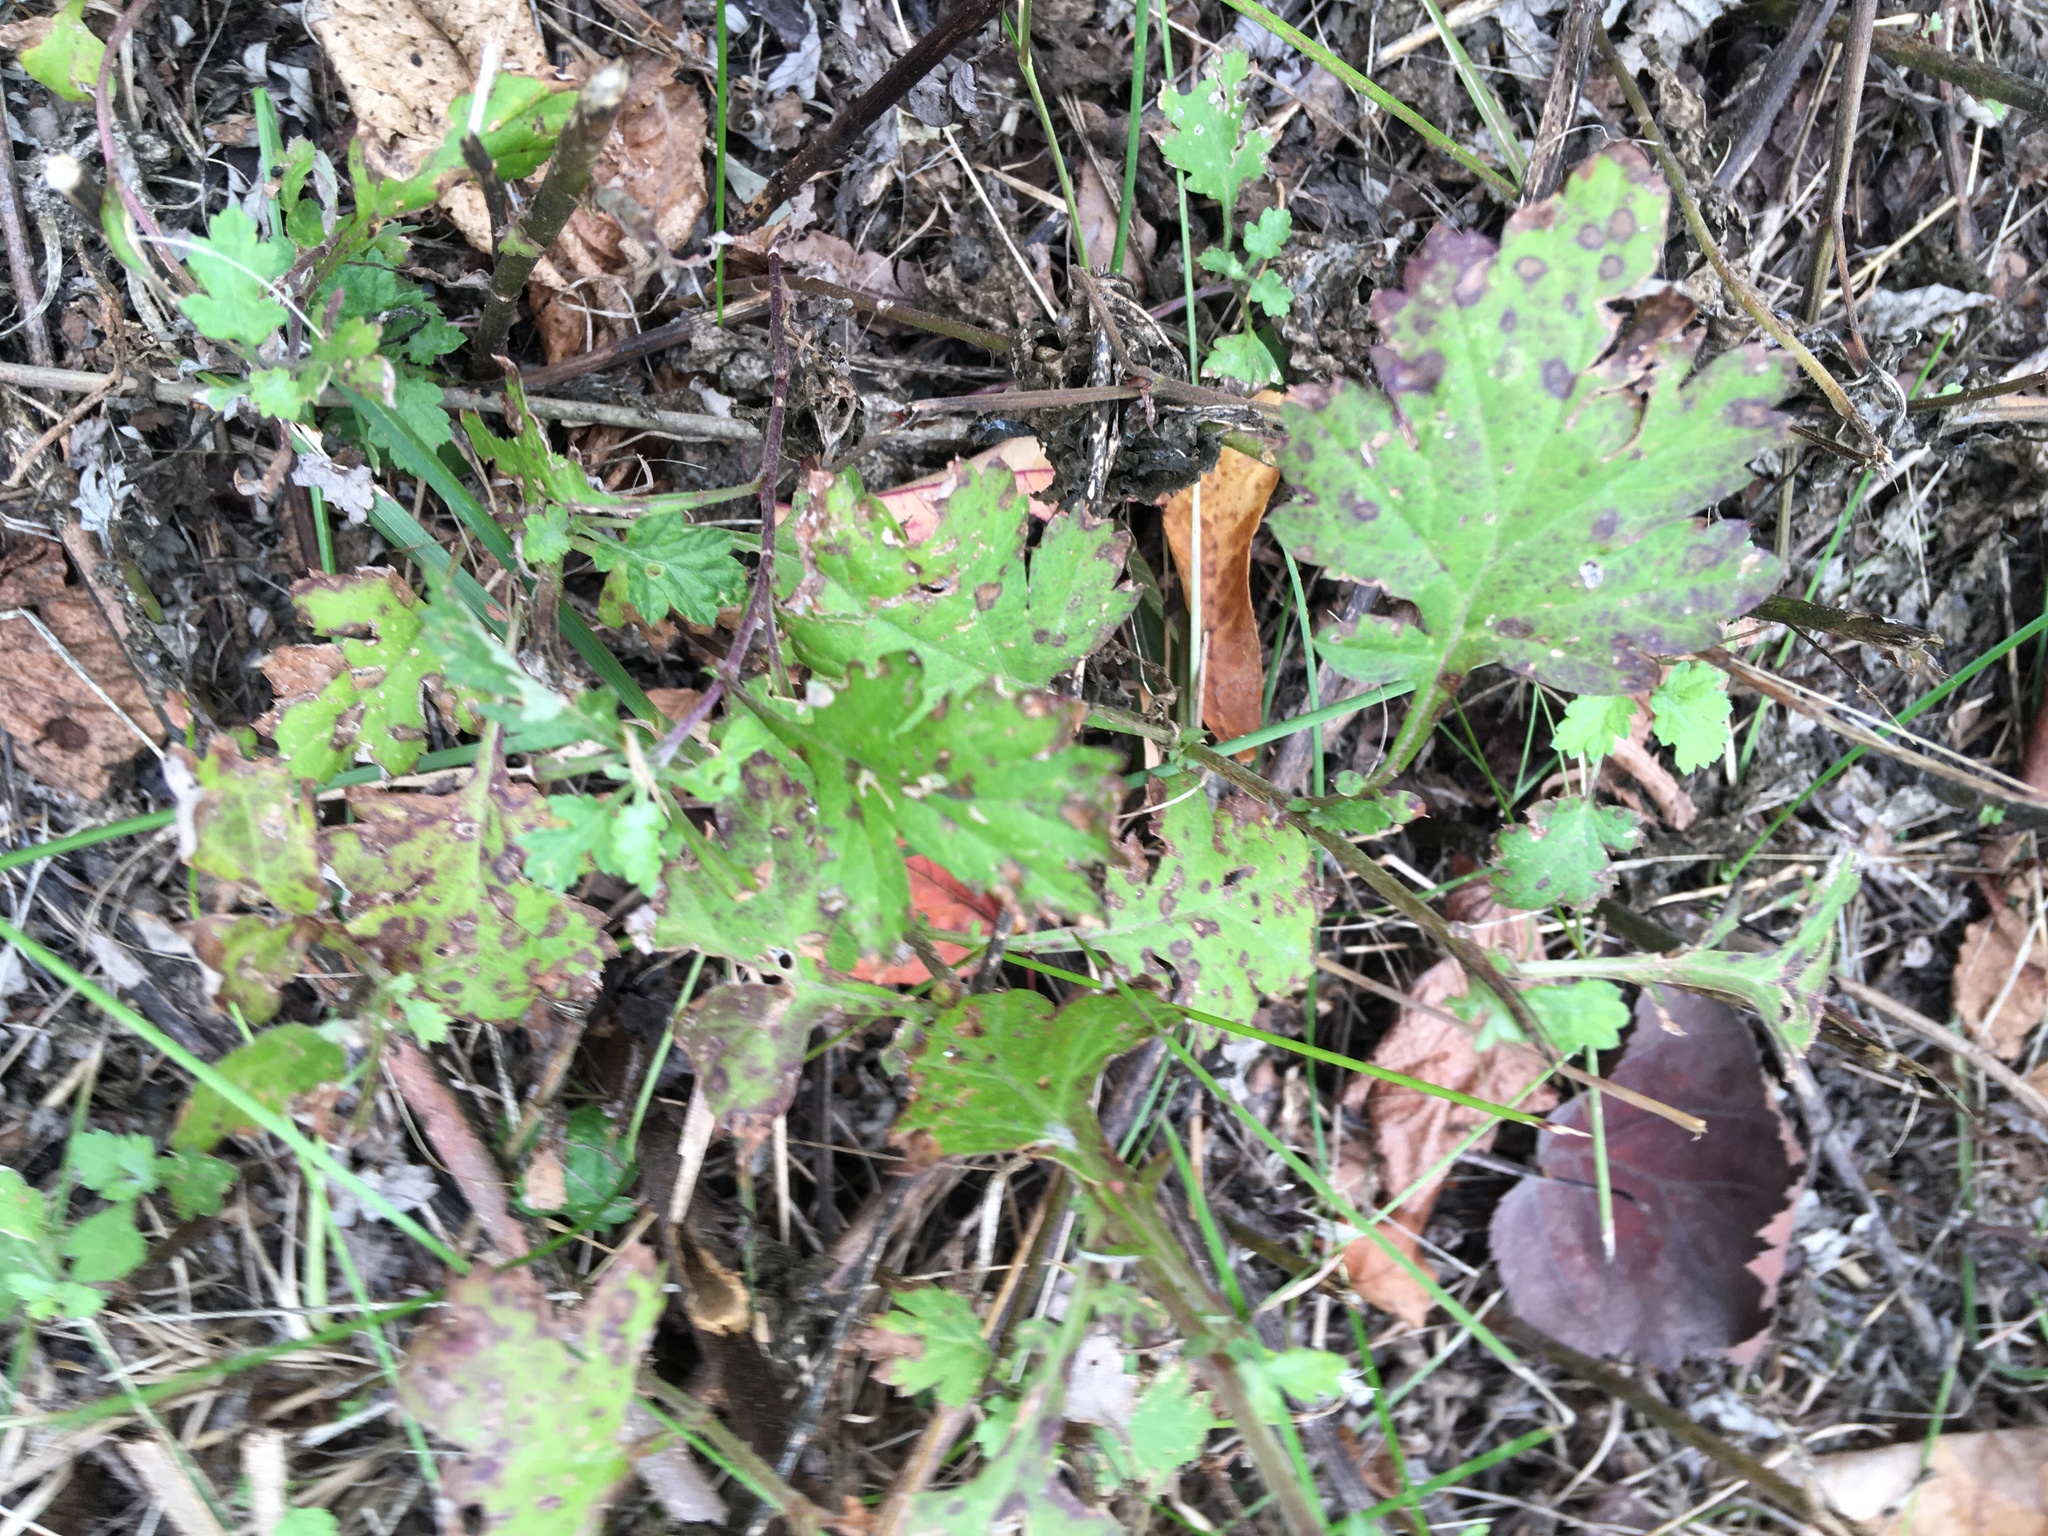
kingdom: Plantae
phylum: Tracheophyta
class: Magnoliopsida
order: Asterales
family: Asteraceae
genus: Artemisia
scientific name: Artemisia vulgaris
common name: Mugwort
